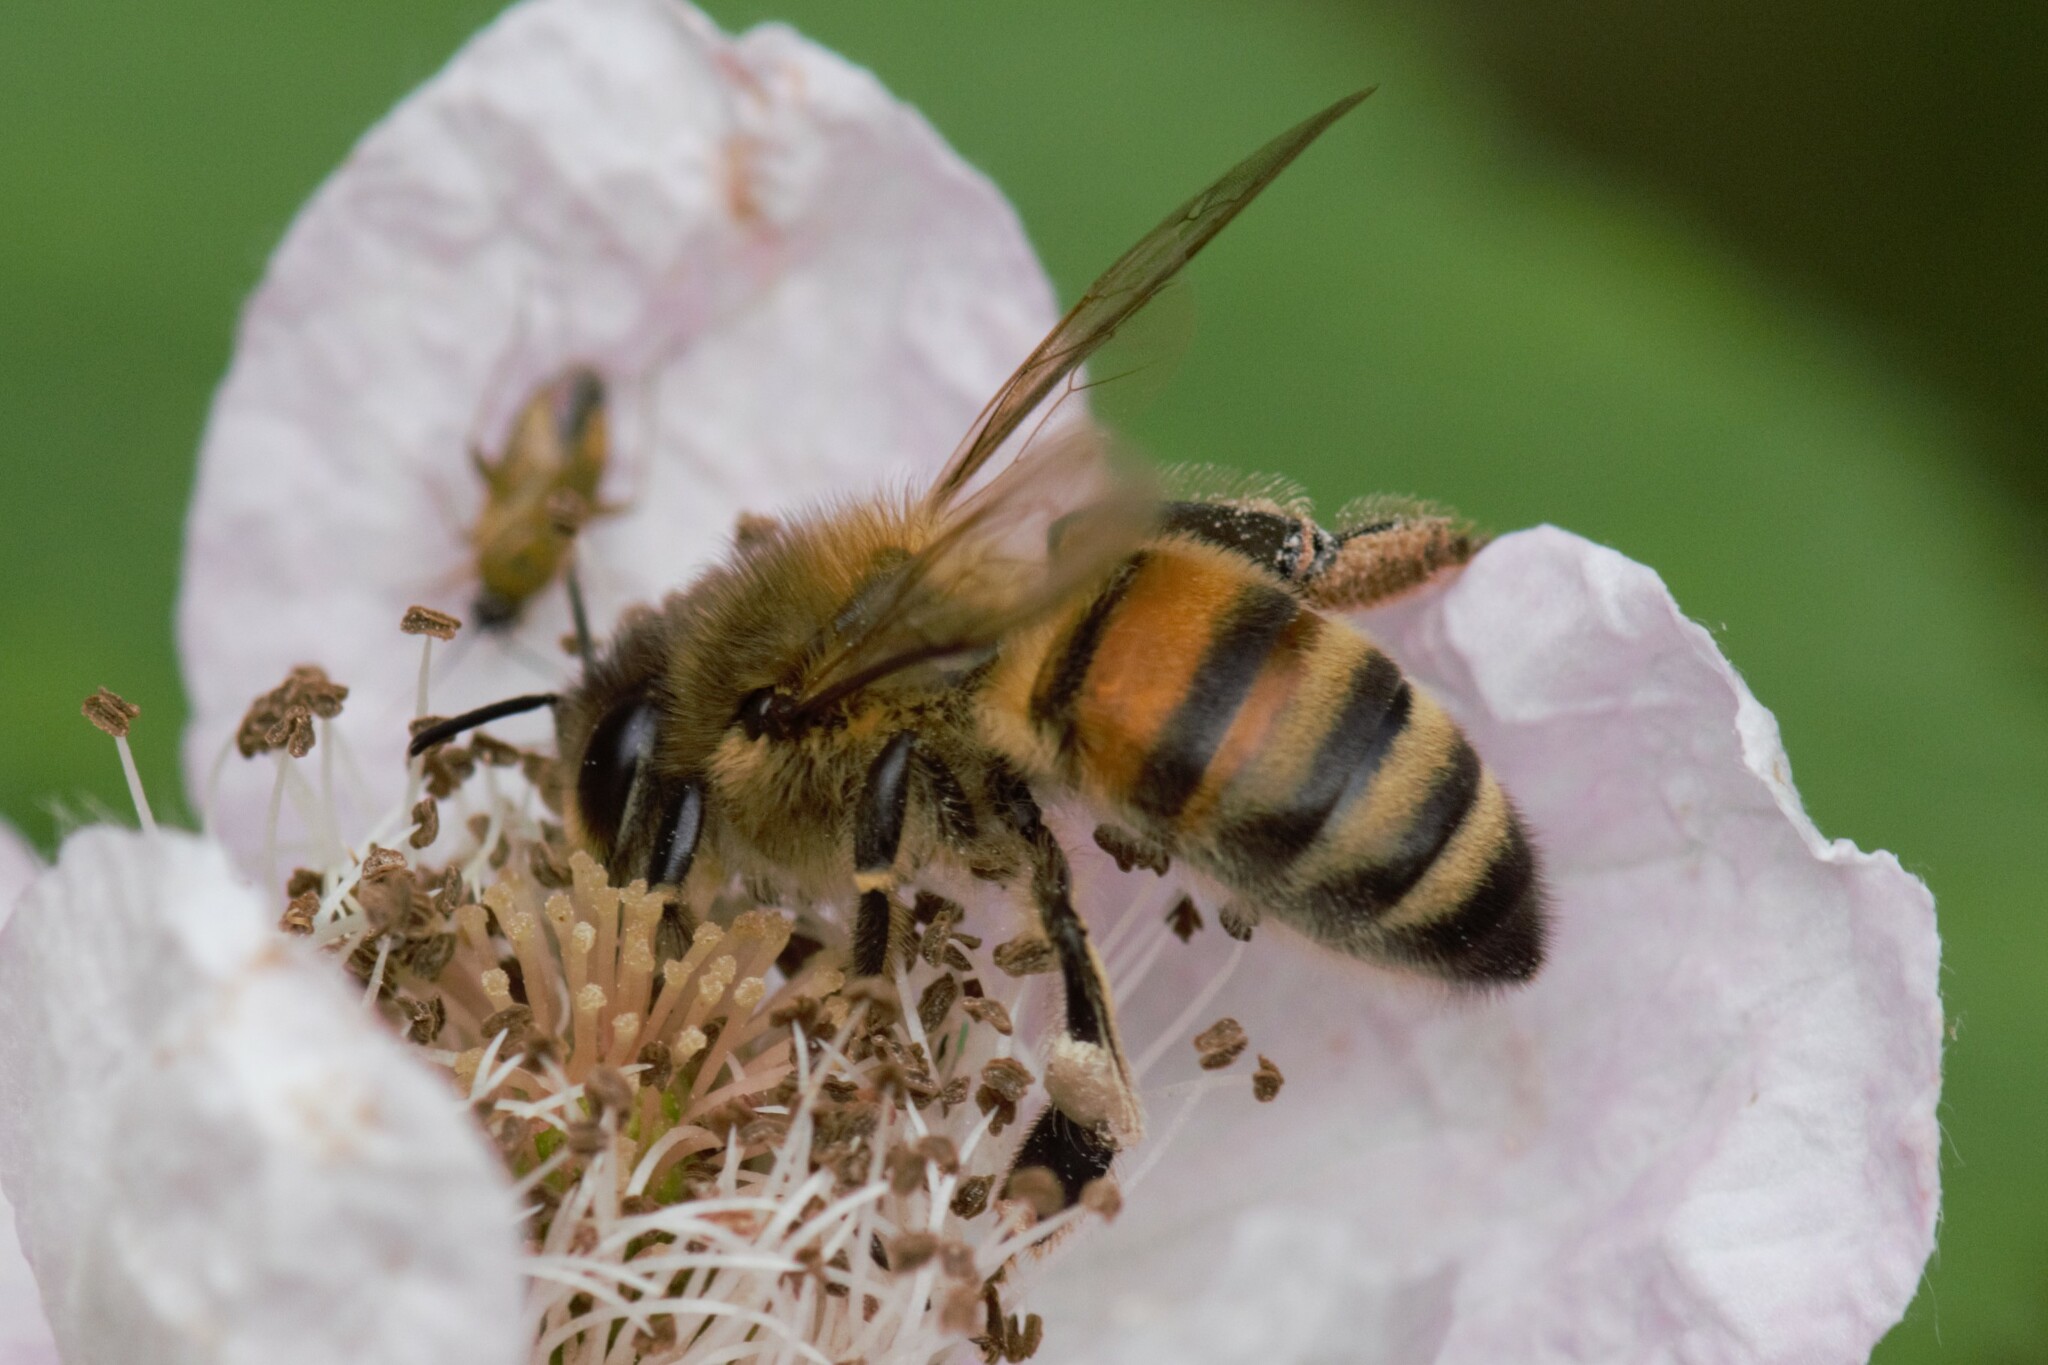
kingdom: Animalia
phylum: Arthropoda
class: Insecta
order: Hymenoptera
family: Apidae
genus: Apis
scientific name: Apis mellifera
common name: Honey bee
